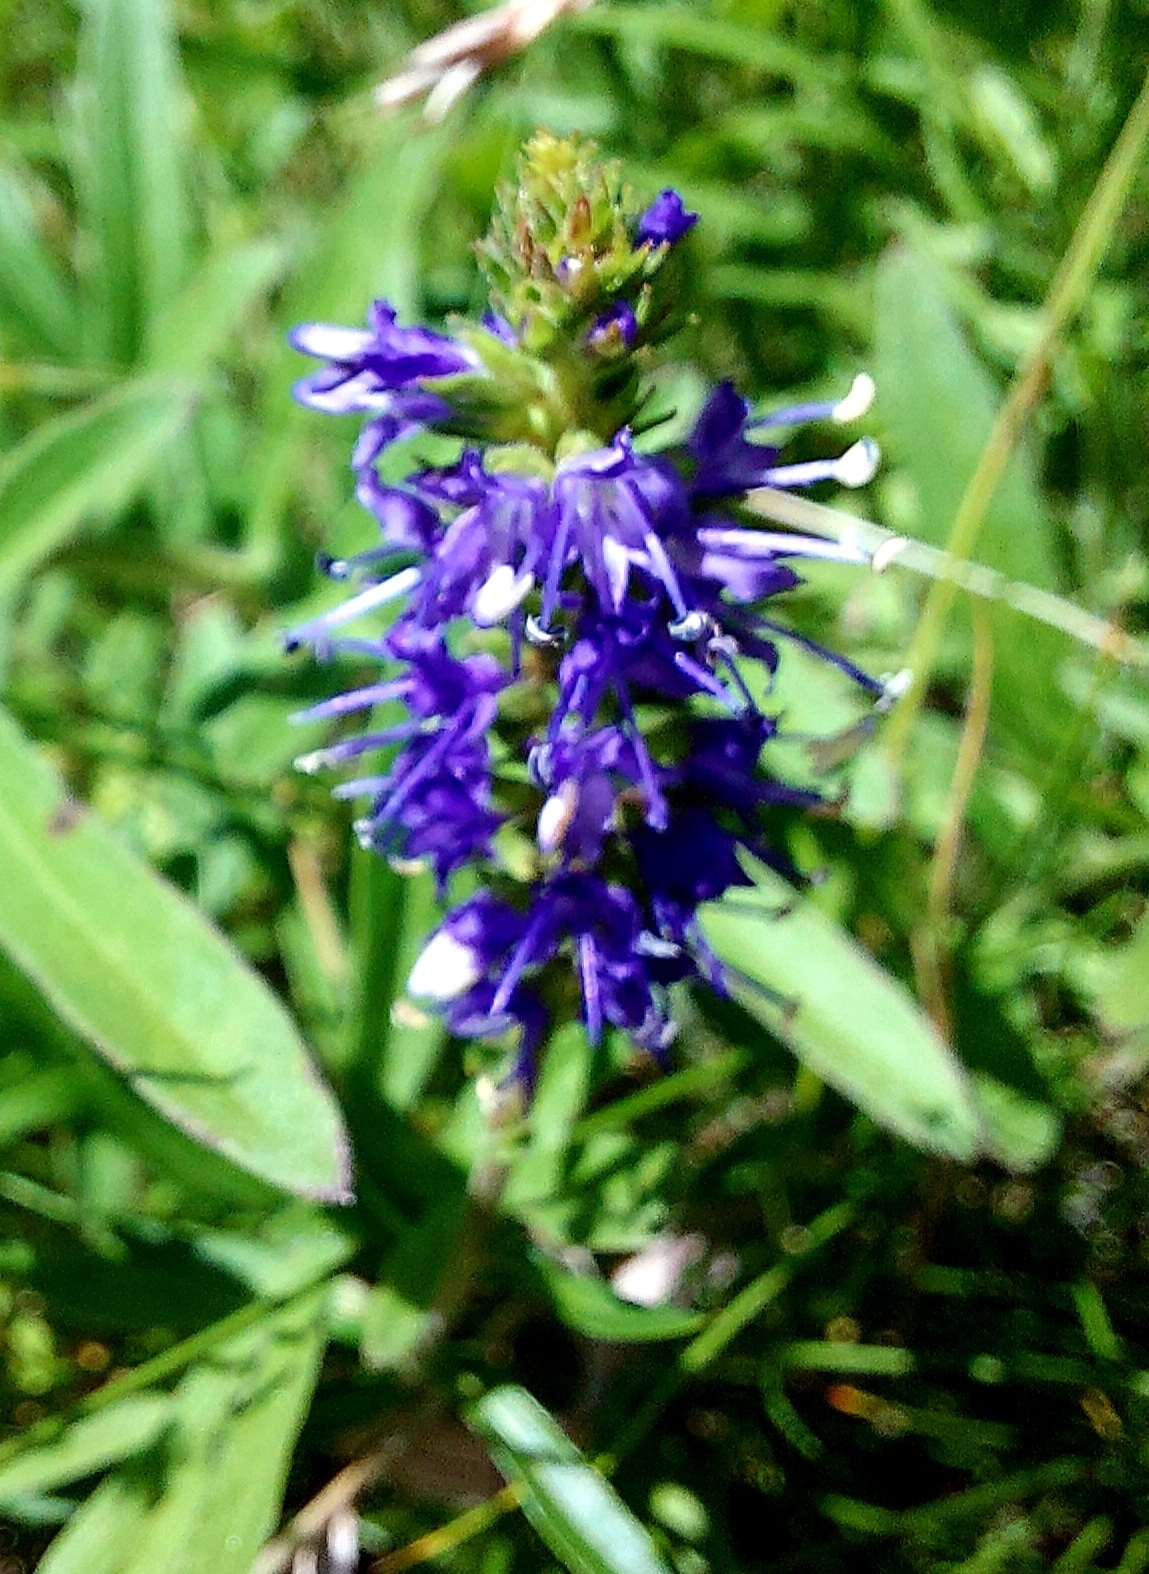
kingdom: Plantae
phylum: Tracheophyta
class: Magnoliopsida
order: Lamiales
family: Plantaginaceae
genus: Veronica
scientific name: Veronica spicata
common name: Spiked speedwell
